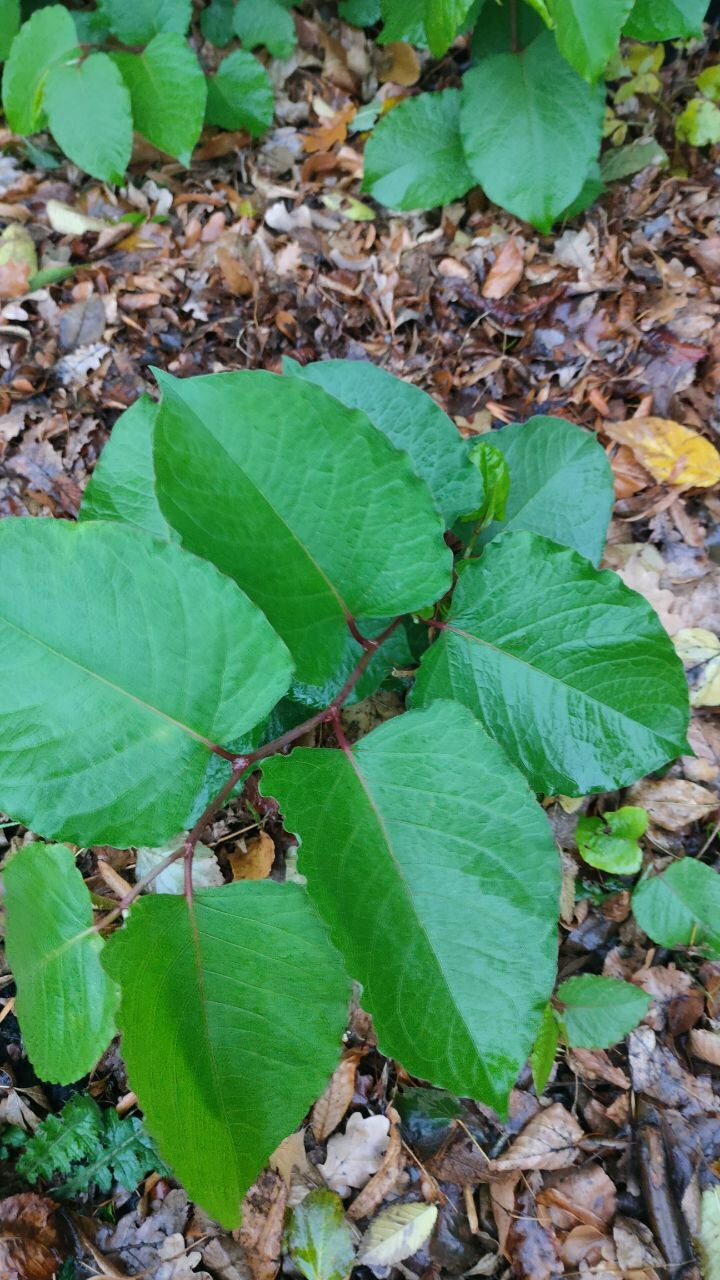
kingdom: Plantae
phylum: Tracheophyta
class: Magnoliopsida
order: Caryophyllales
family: Polygonaceae
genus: Reynoutria
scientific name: Reynoutria bohemica
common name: Bohemian knotweed
